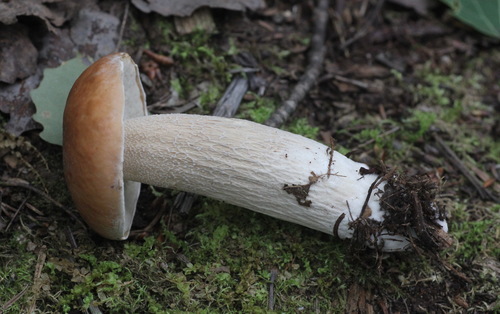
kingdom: Fungi
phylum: Basidiomycota
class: Agaricomycetes
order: Boletales
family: Boletaceae
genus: Boletus
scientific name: Boletus edulis
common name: Cep
